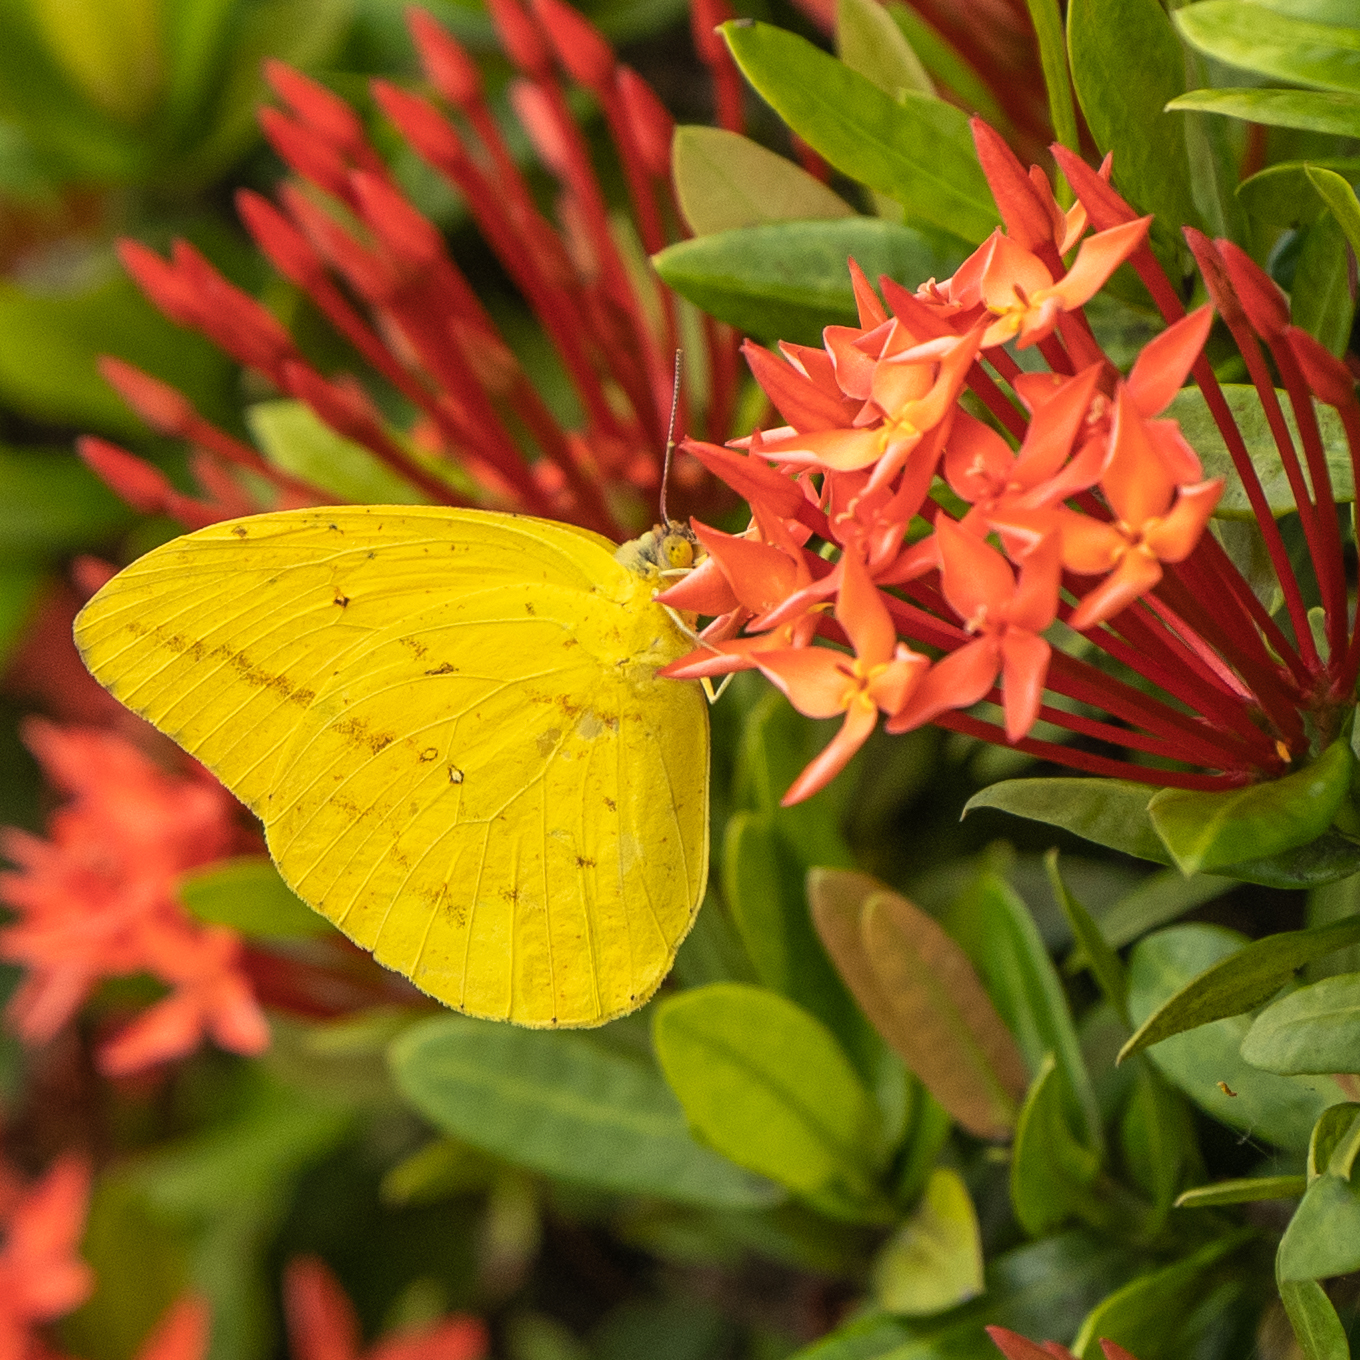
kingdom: Animalia
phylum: Arthropoda
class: Insecta
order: Lepidoptera
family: Pieridae
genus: Phoebis
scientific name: Phoebis agarithe
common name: Large orange sulphur
